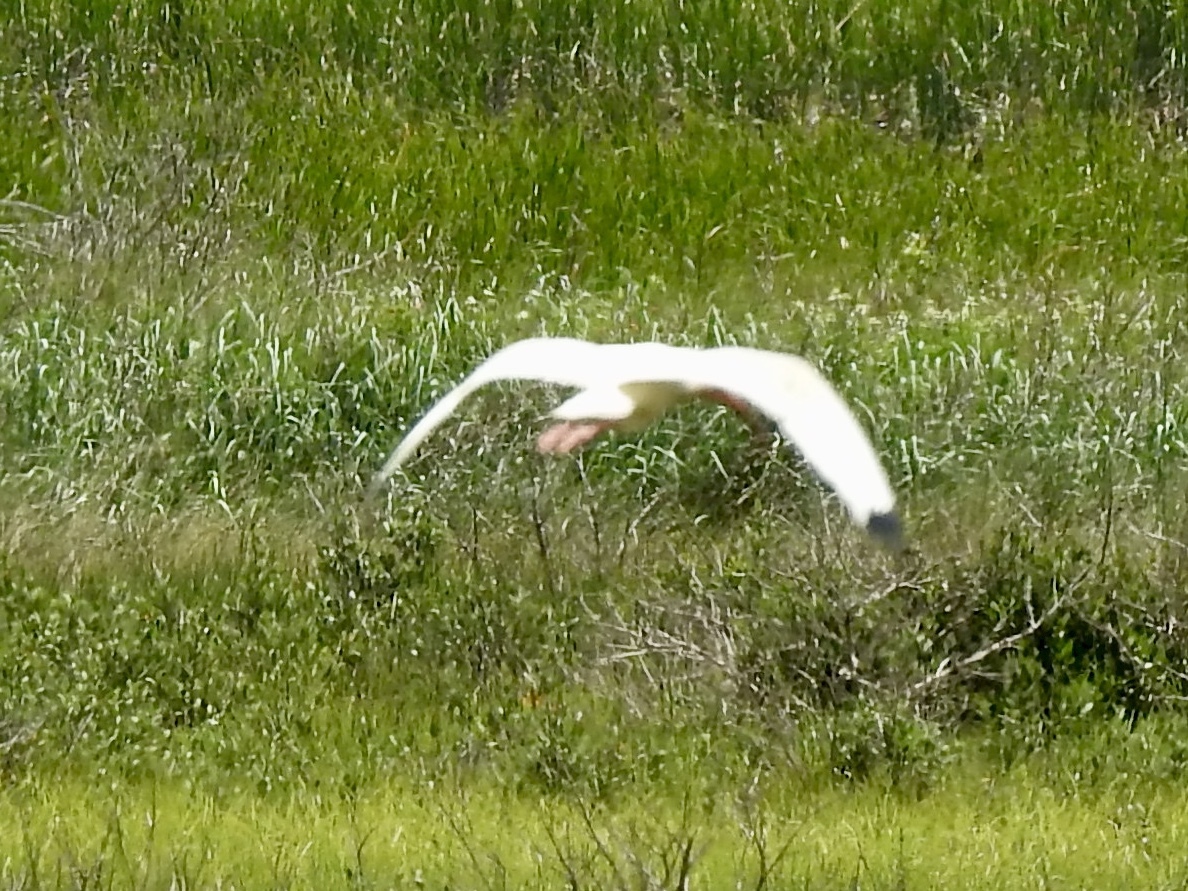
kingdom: Animalia
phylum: Chordata
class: Aves
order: Pelecaniformes
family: Threskiornithidae
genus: Eudocimus
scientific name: Eudocimus albus
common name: White ibis
